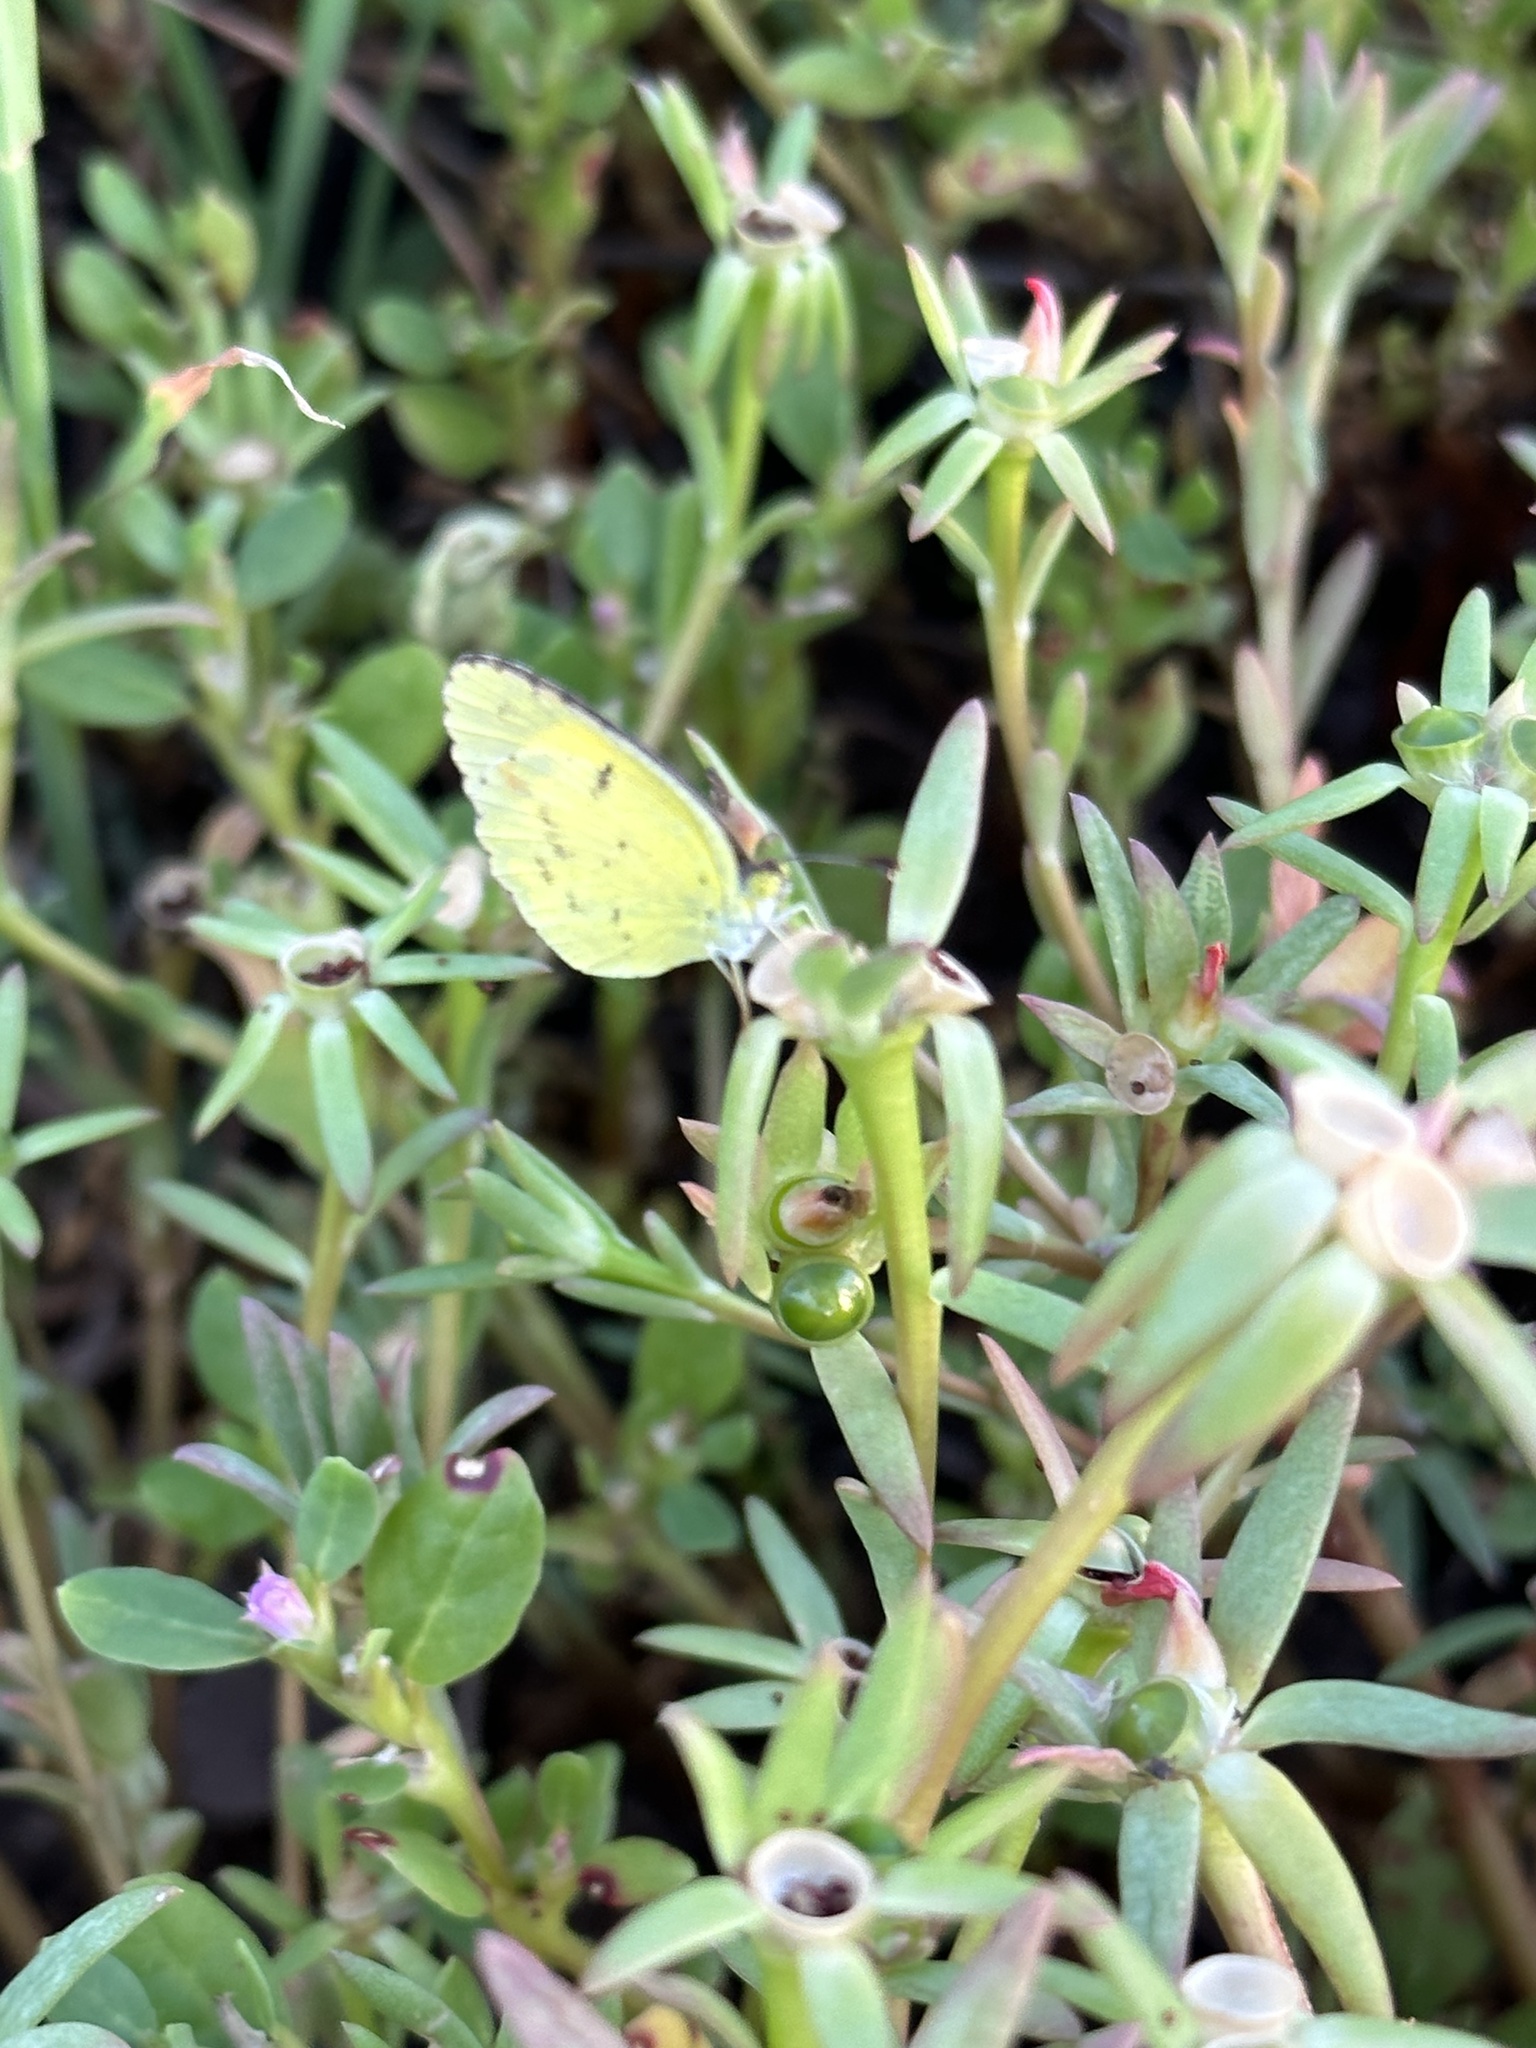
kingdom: Animalia
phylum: Arthropoda
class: Insecta
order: Lepidoptera
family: Pieridae
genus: Pyrisitia
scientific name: Pyrisitia lisa
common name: Little yellow
